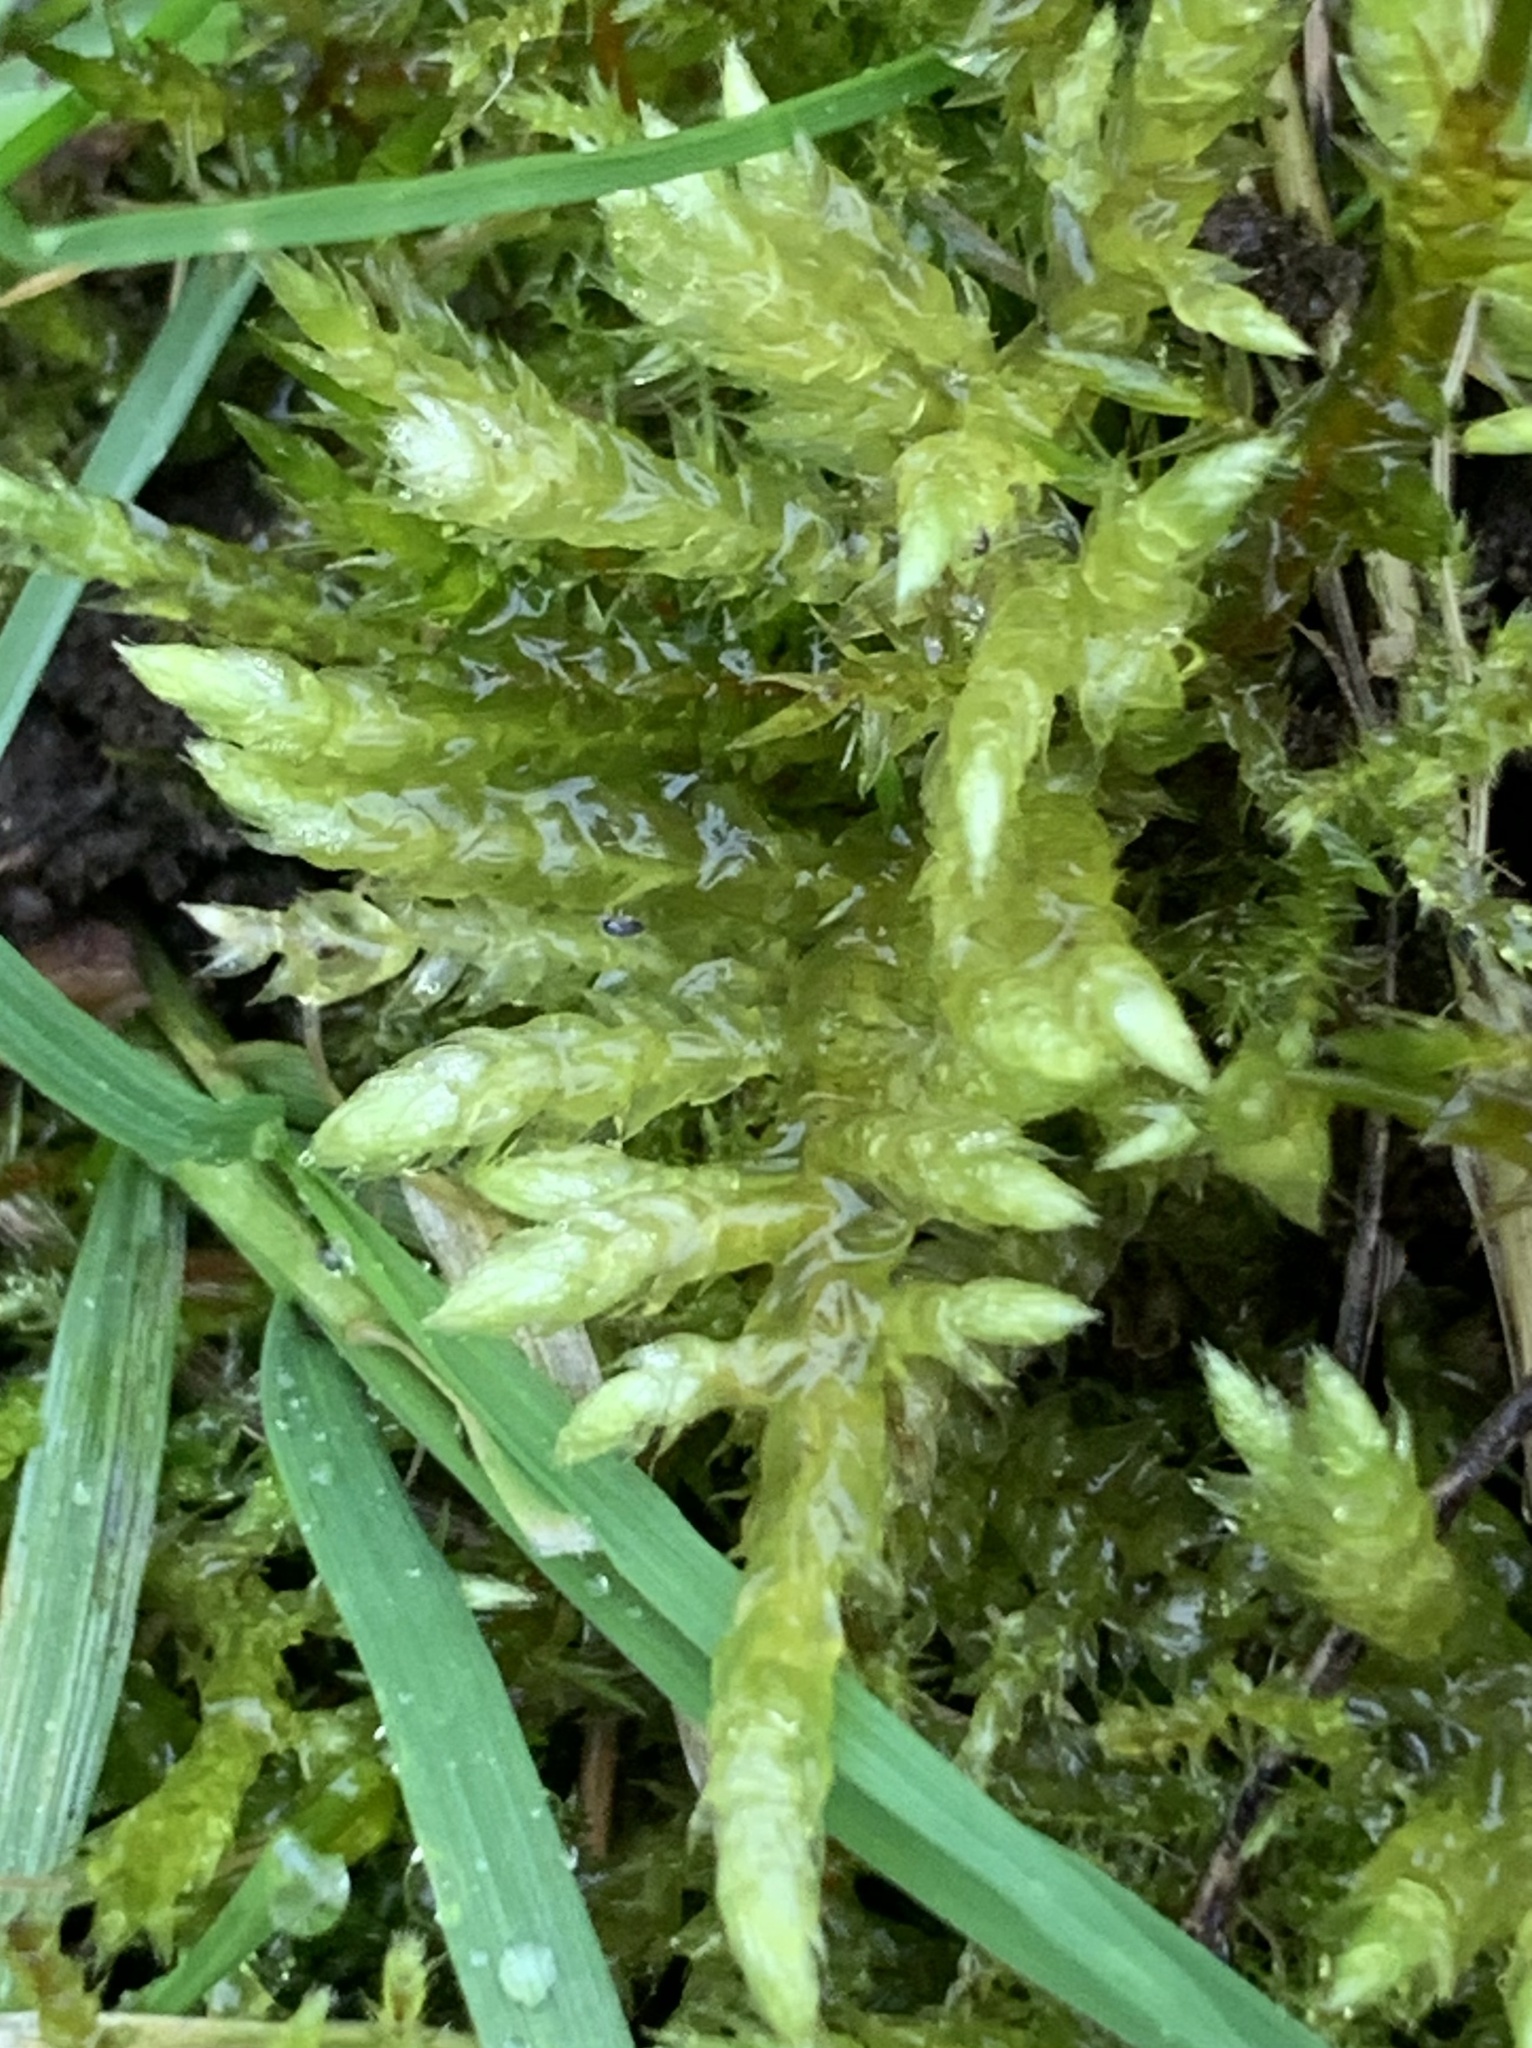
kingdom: Plantae
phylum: Bryophyta
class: Bryopsida
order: Hypnales
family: Brachytheciaceae
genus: Pseudoscleropodium
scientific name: Pseudoscleropodium purum
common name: Neat feather-moss
